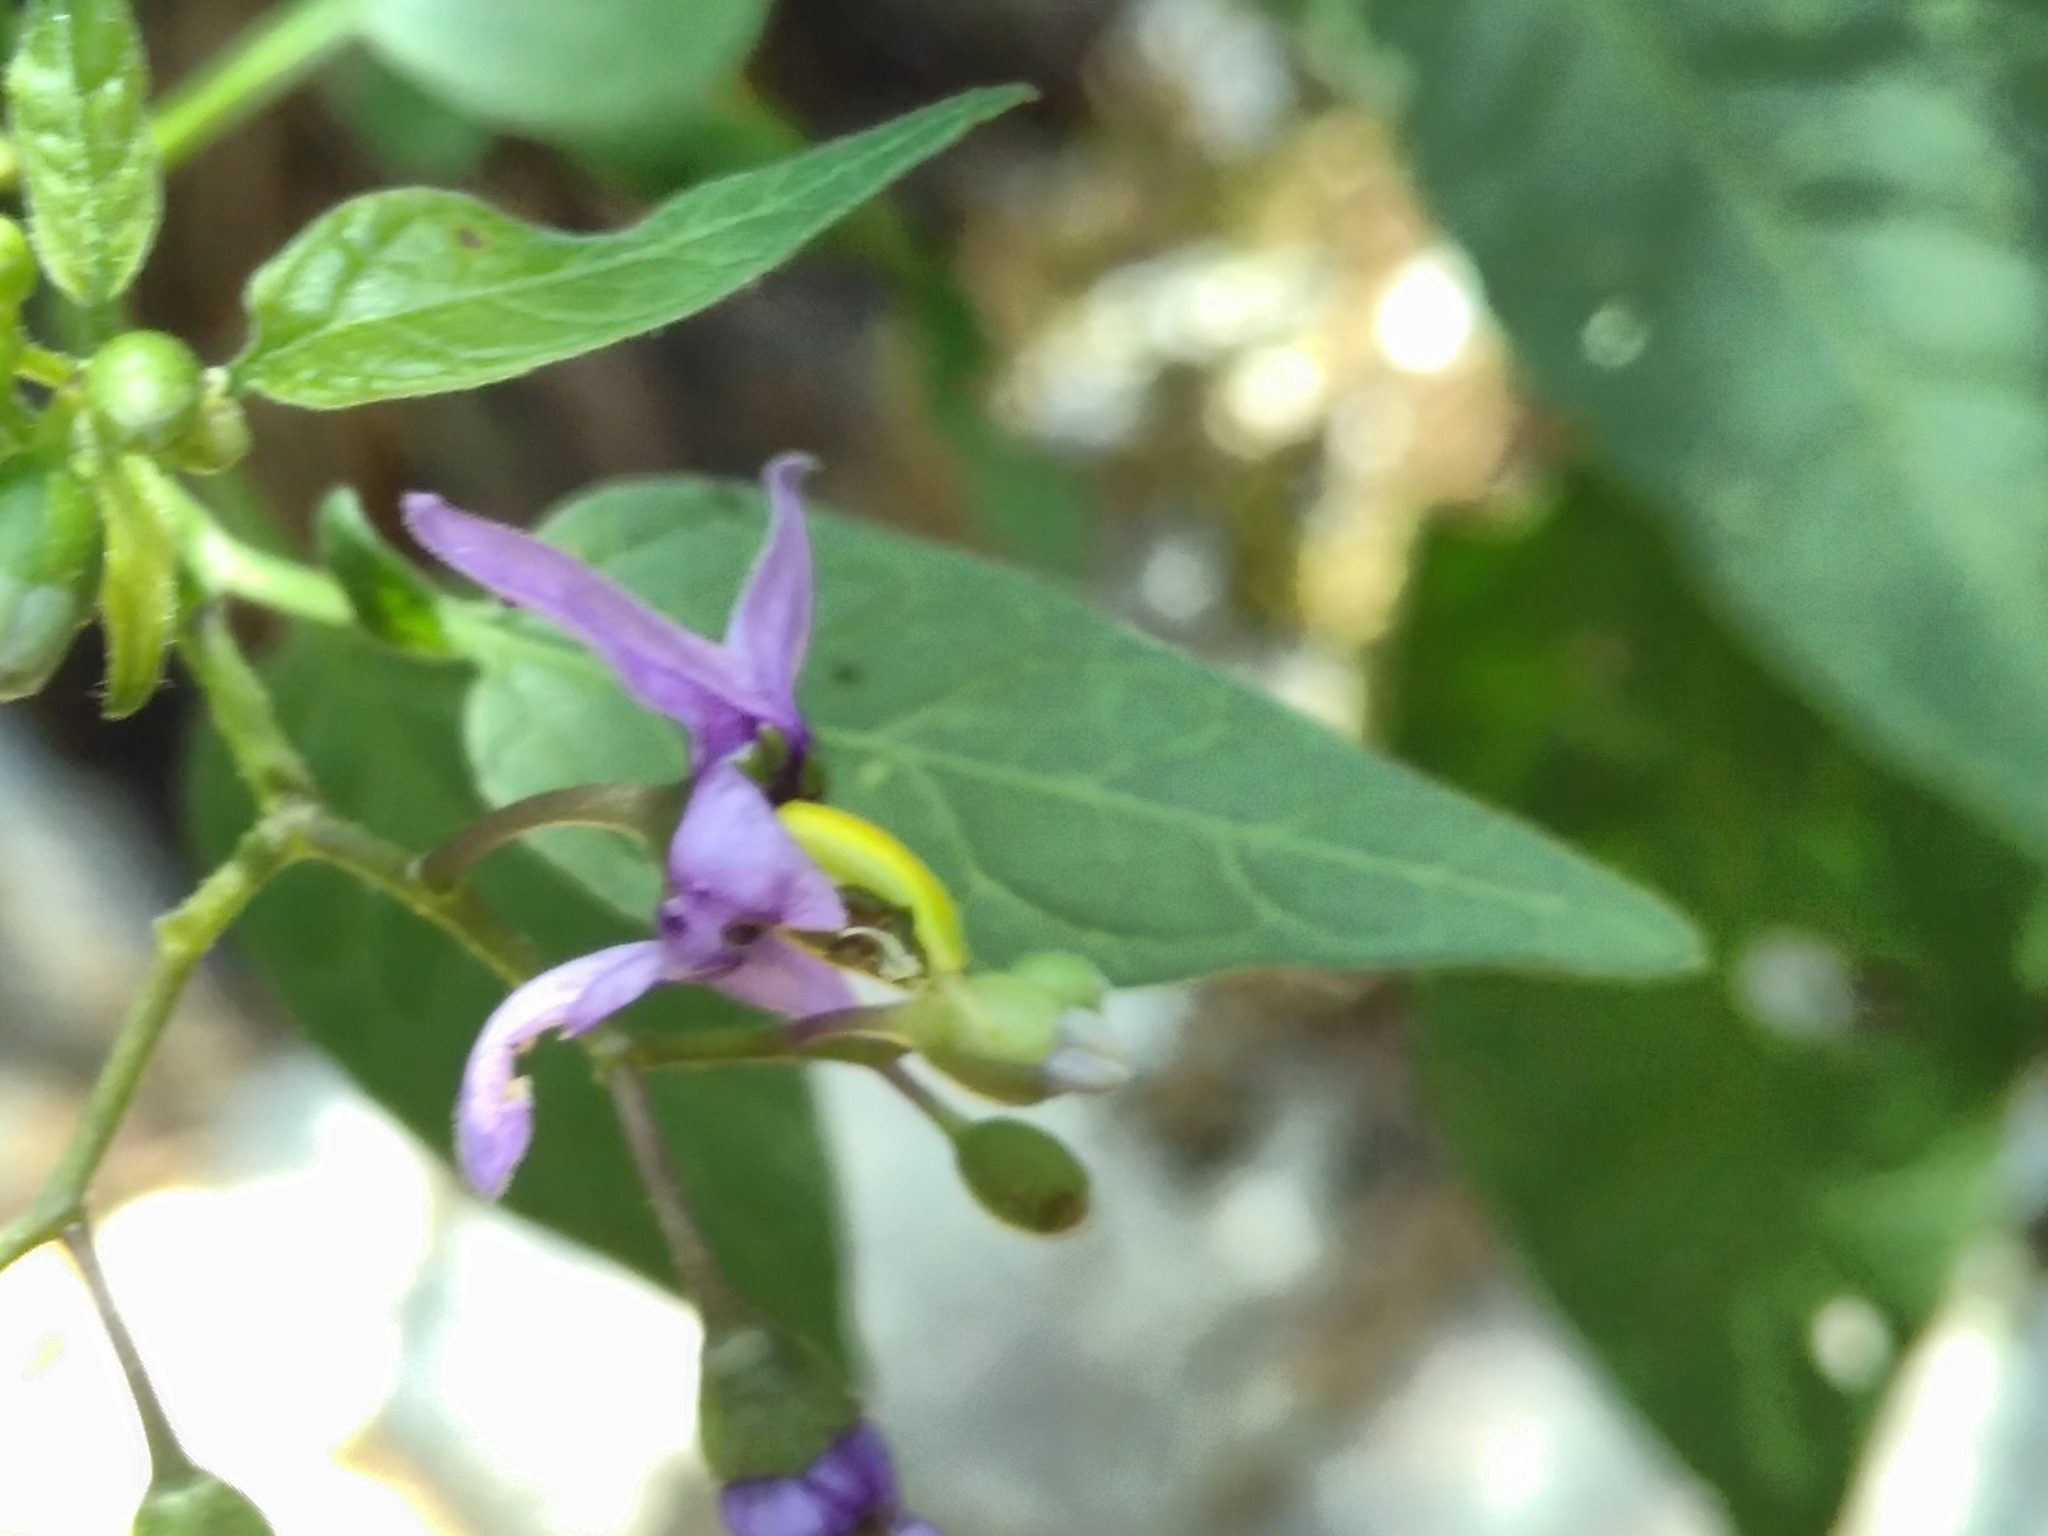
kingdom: Plantae
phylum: Tracheophyta
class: Magnoliopsida
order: Solanales
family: Solanaceae
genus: Solanum
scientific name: Solanum dulcamara
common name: Climbing nightshade
